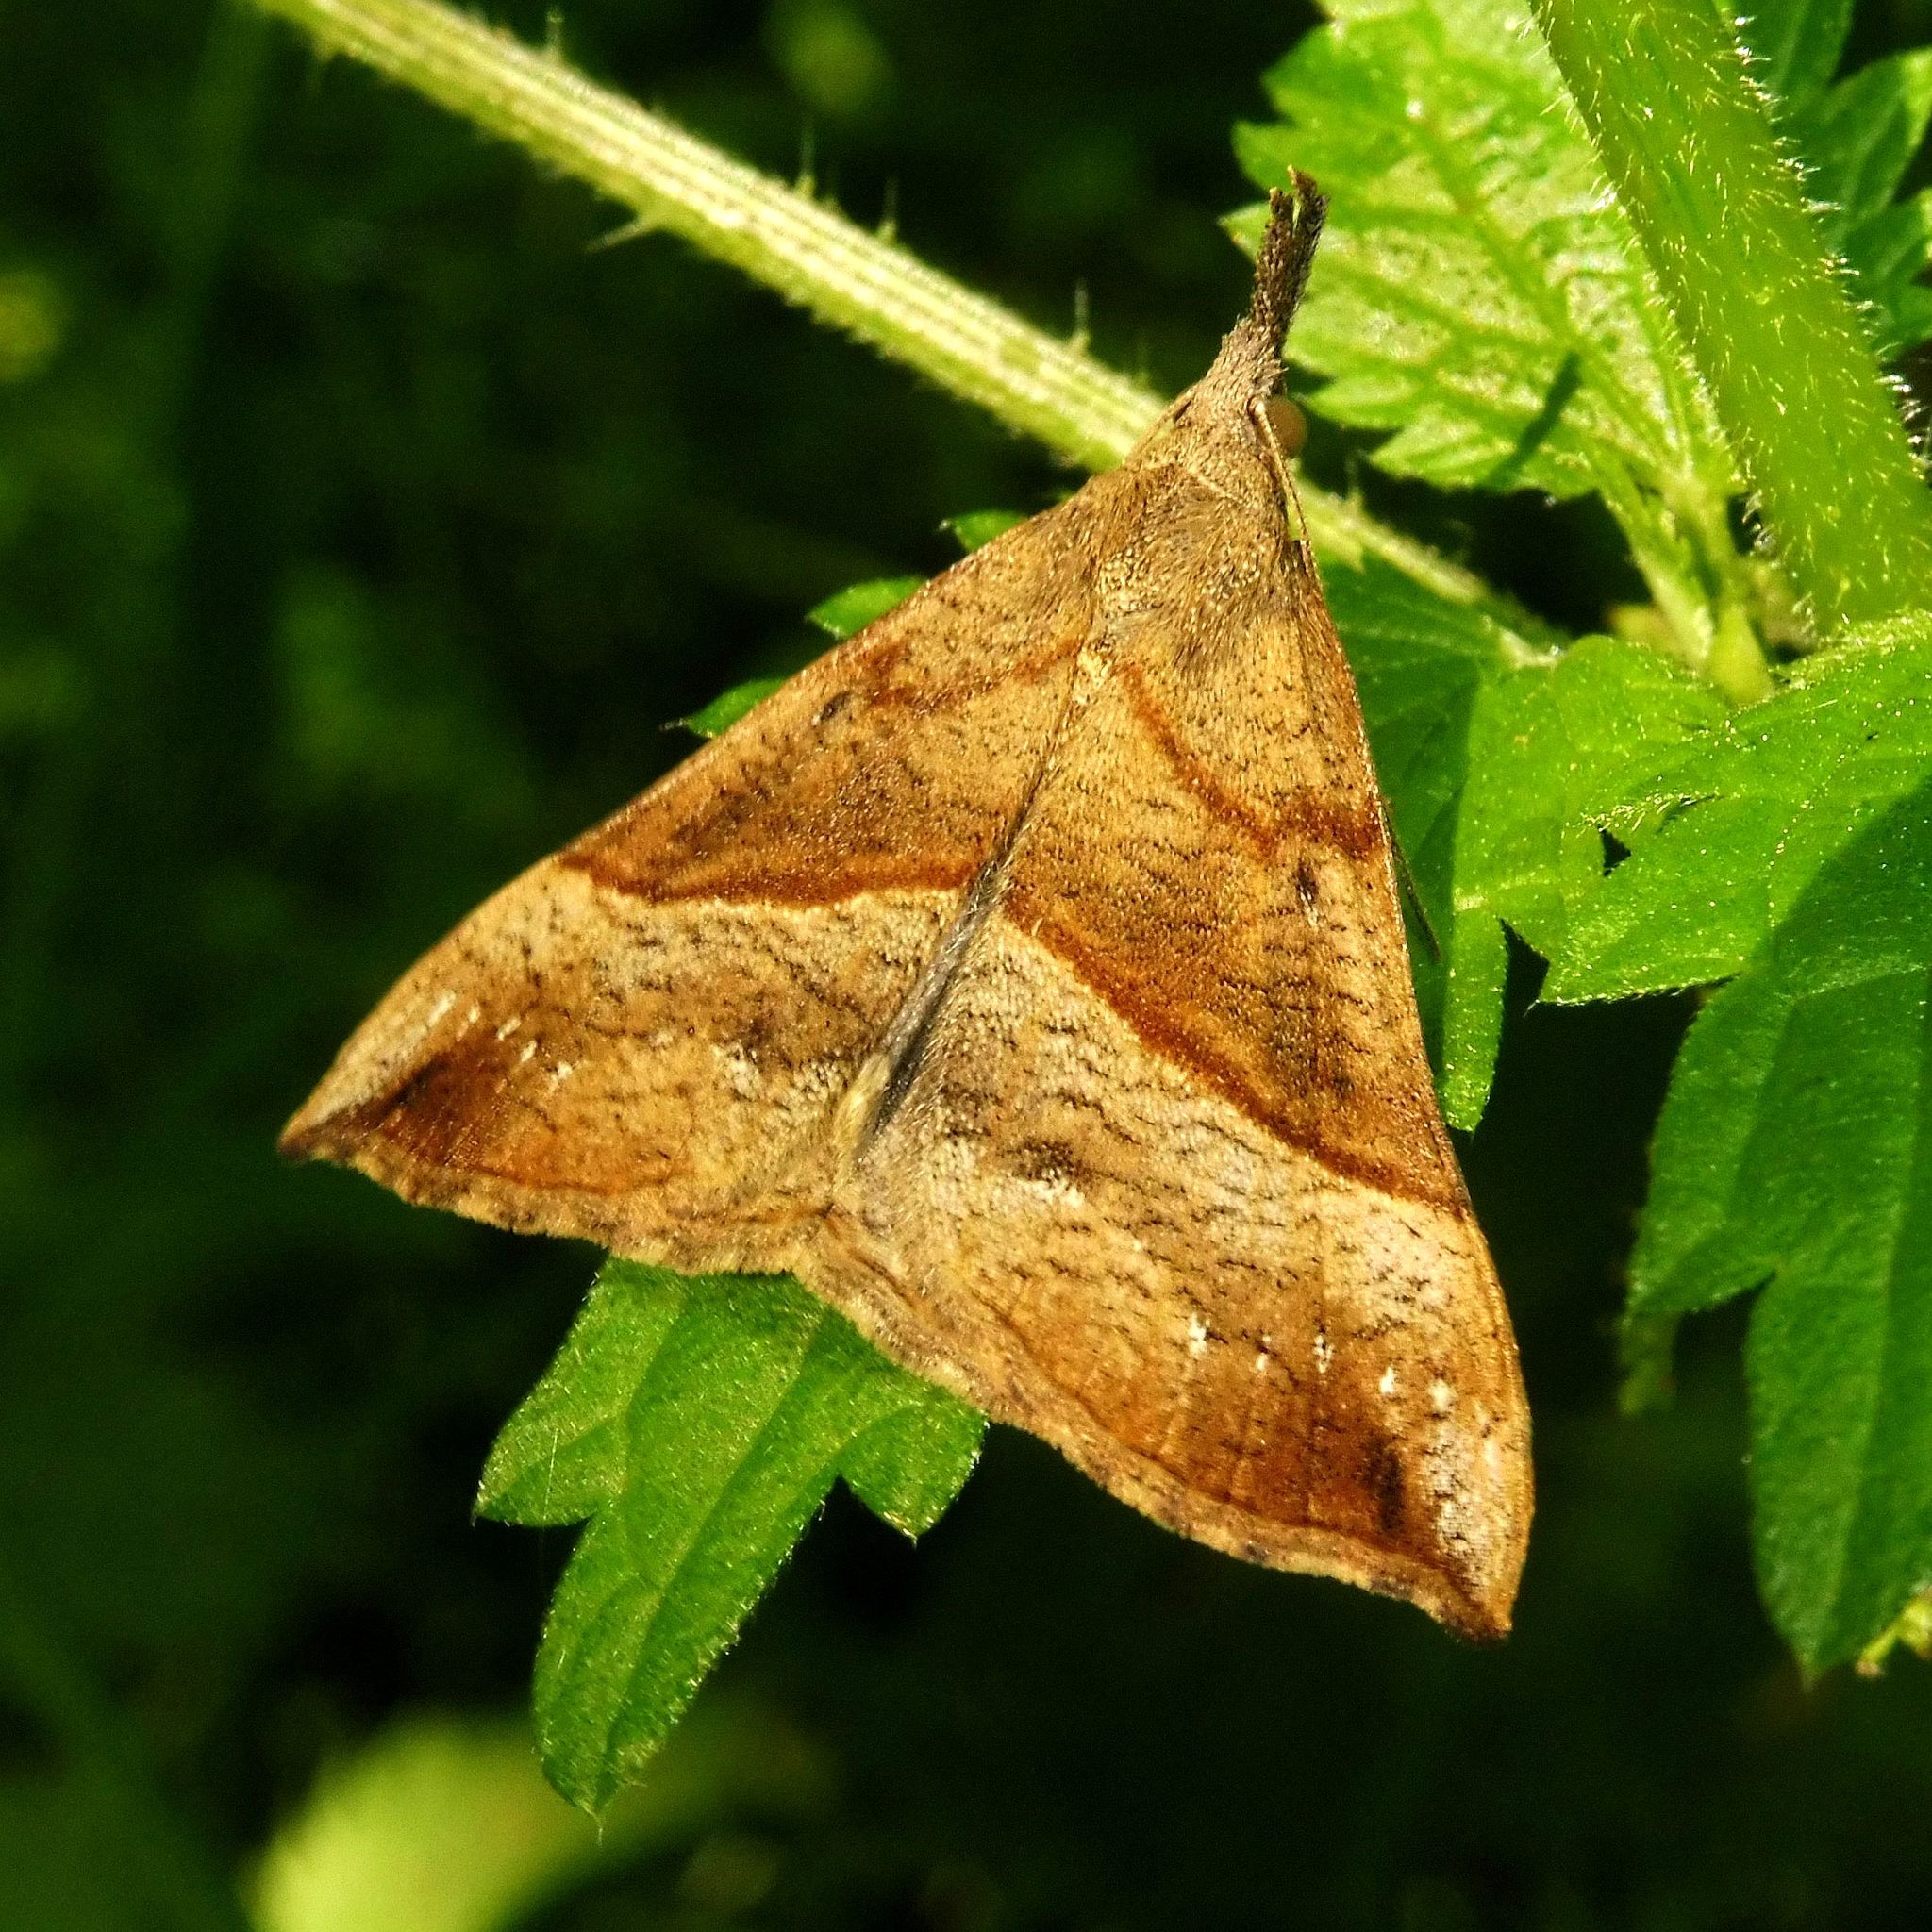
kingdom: Animalia
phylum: Arthropoda
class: Insecta
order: Lepidoptera
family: Erebidae
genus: Hypena
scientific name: Hypena proboscidalis
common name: Snout
